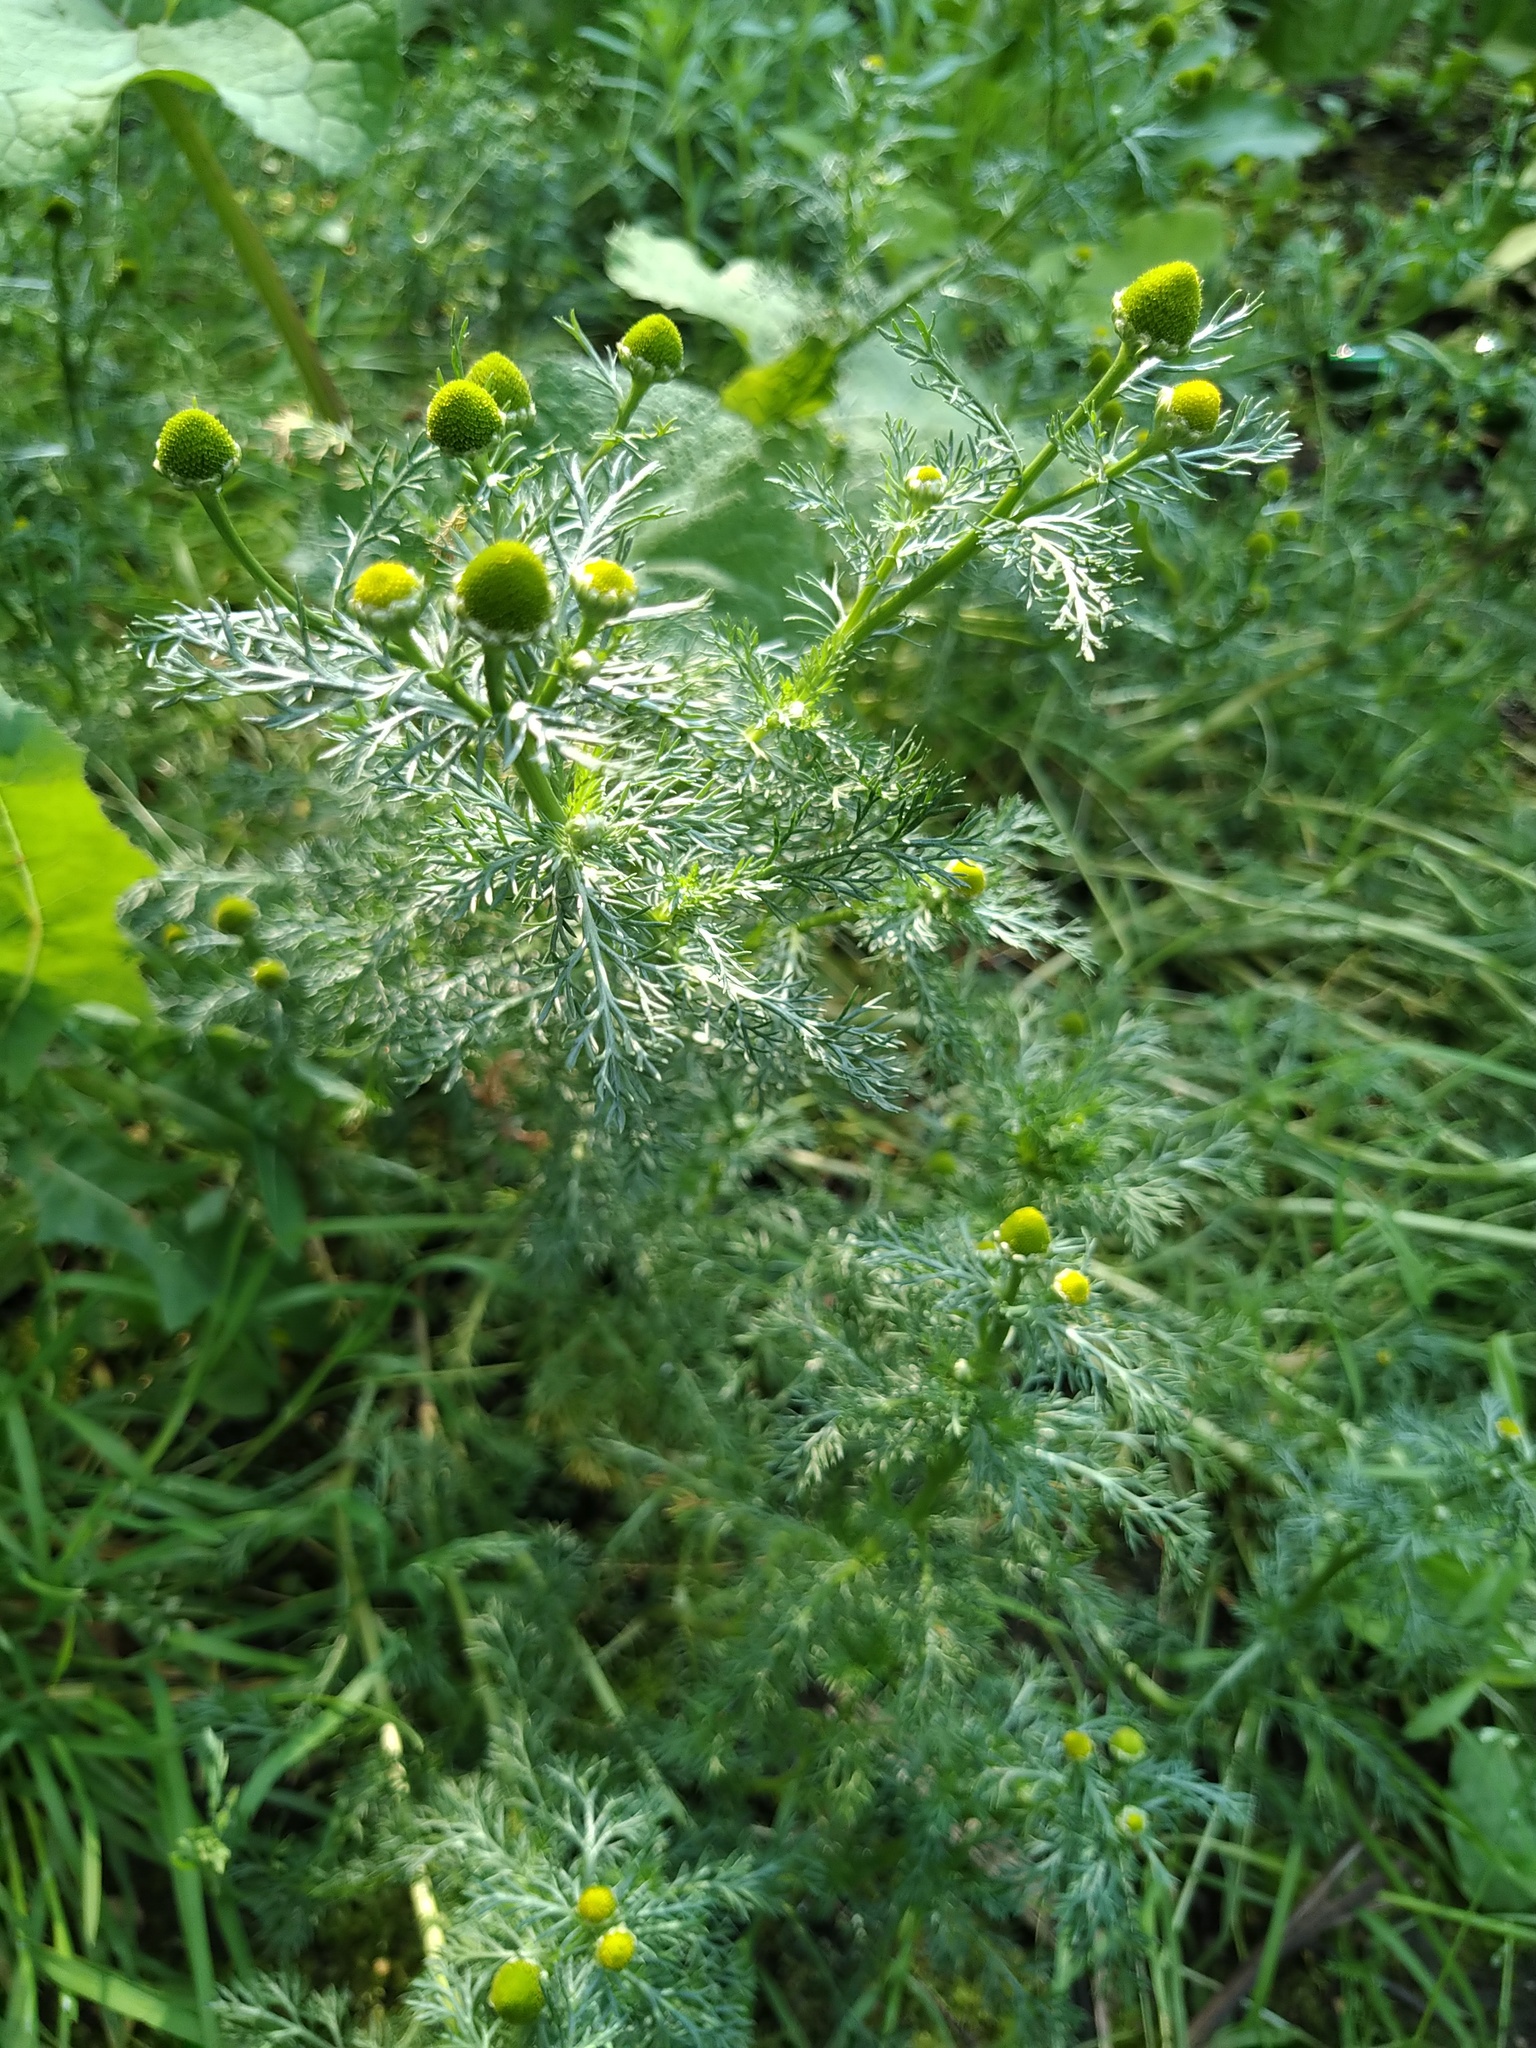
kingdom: Plantae
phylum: Tracheophyta
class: Magnoliopsida
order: Asterales
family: Asteraceae
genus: Matricaria
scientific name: Matricaria discoidea
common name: Disc mayweed
